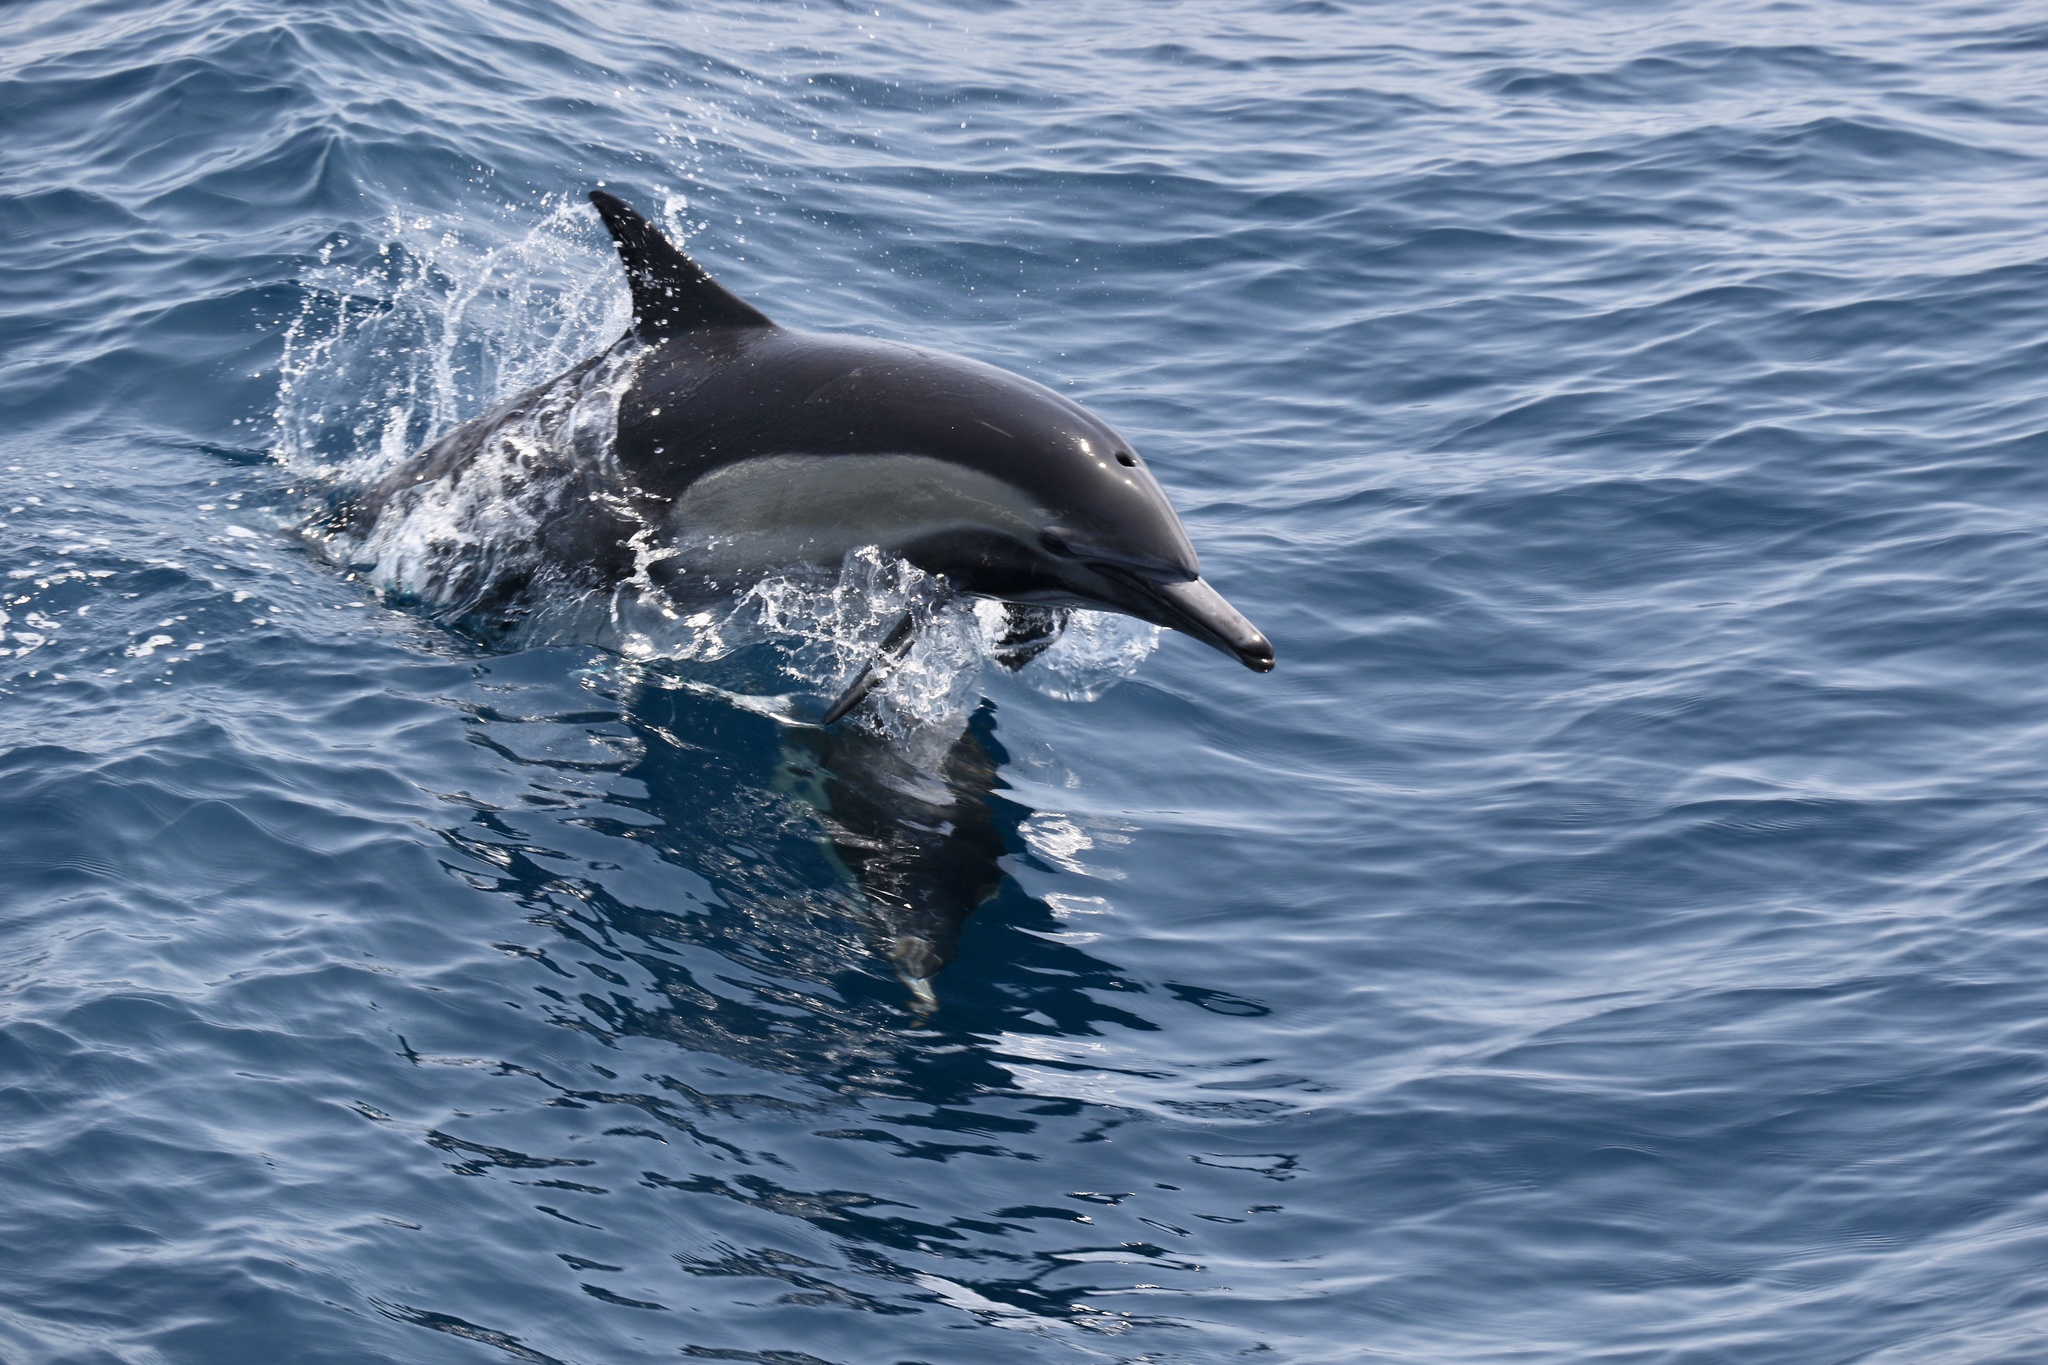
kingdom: Animalia
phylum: Chordata
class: Mammalia
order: Cetacea
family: Delphinidae
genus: Delphinus
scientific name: Delphinus delphis
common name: Common dolphin
